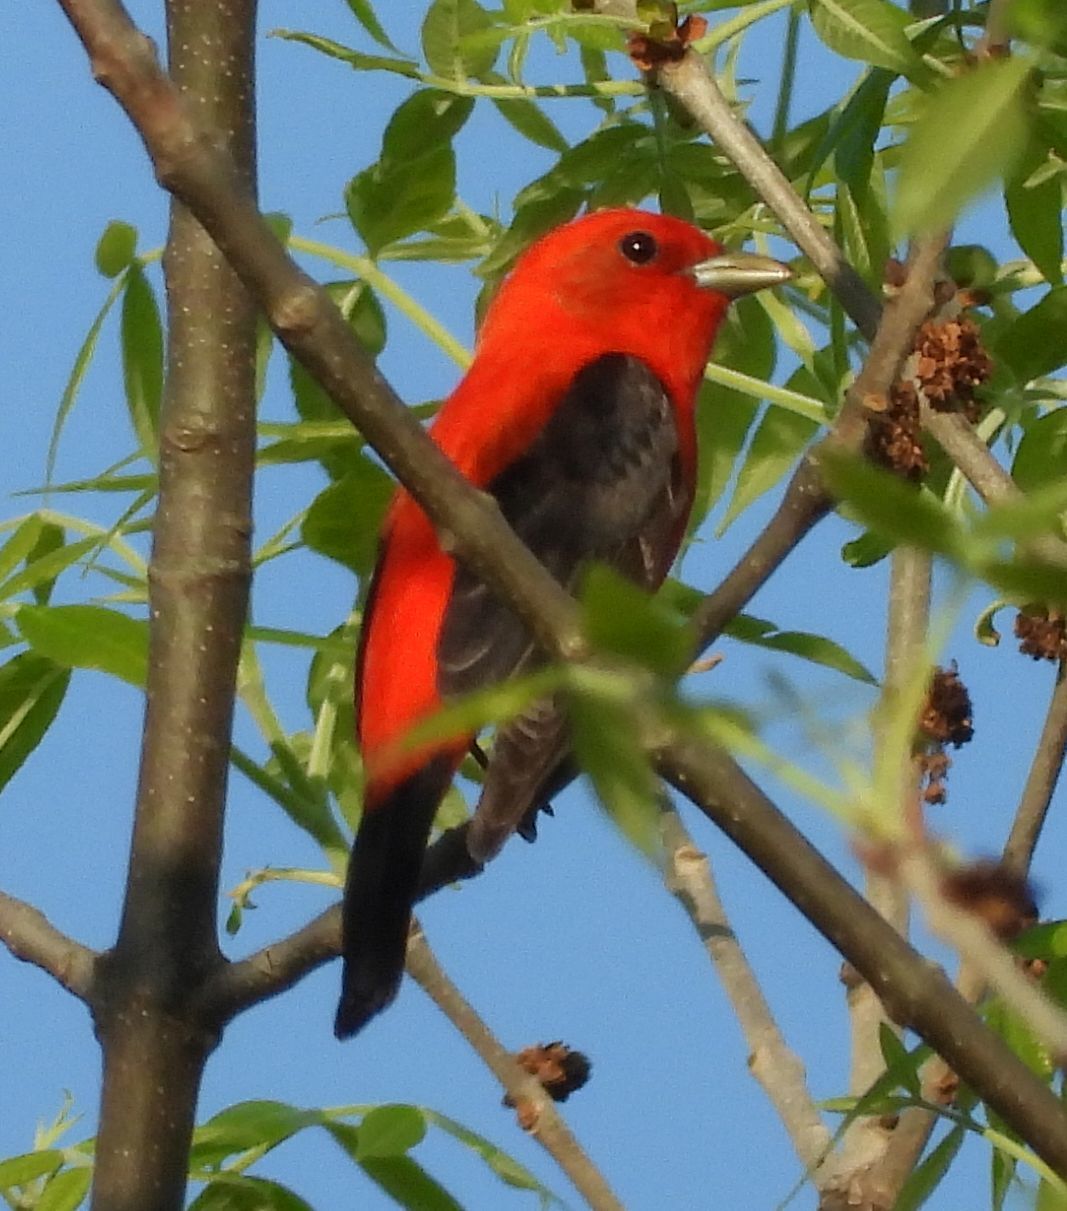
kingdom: Animalia
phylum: Chordata
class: Aves
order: Passeriformes
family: Cardinalidae
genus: Piranga
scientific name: Piranga olivacea
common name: Scarlet tanager
